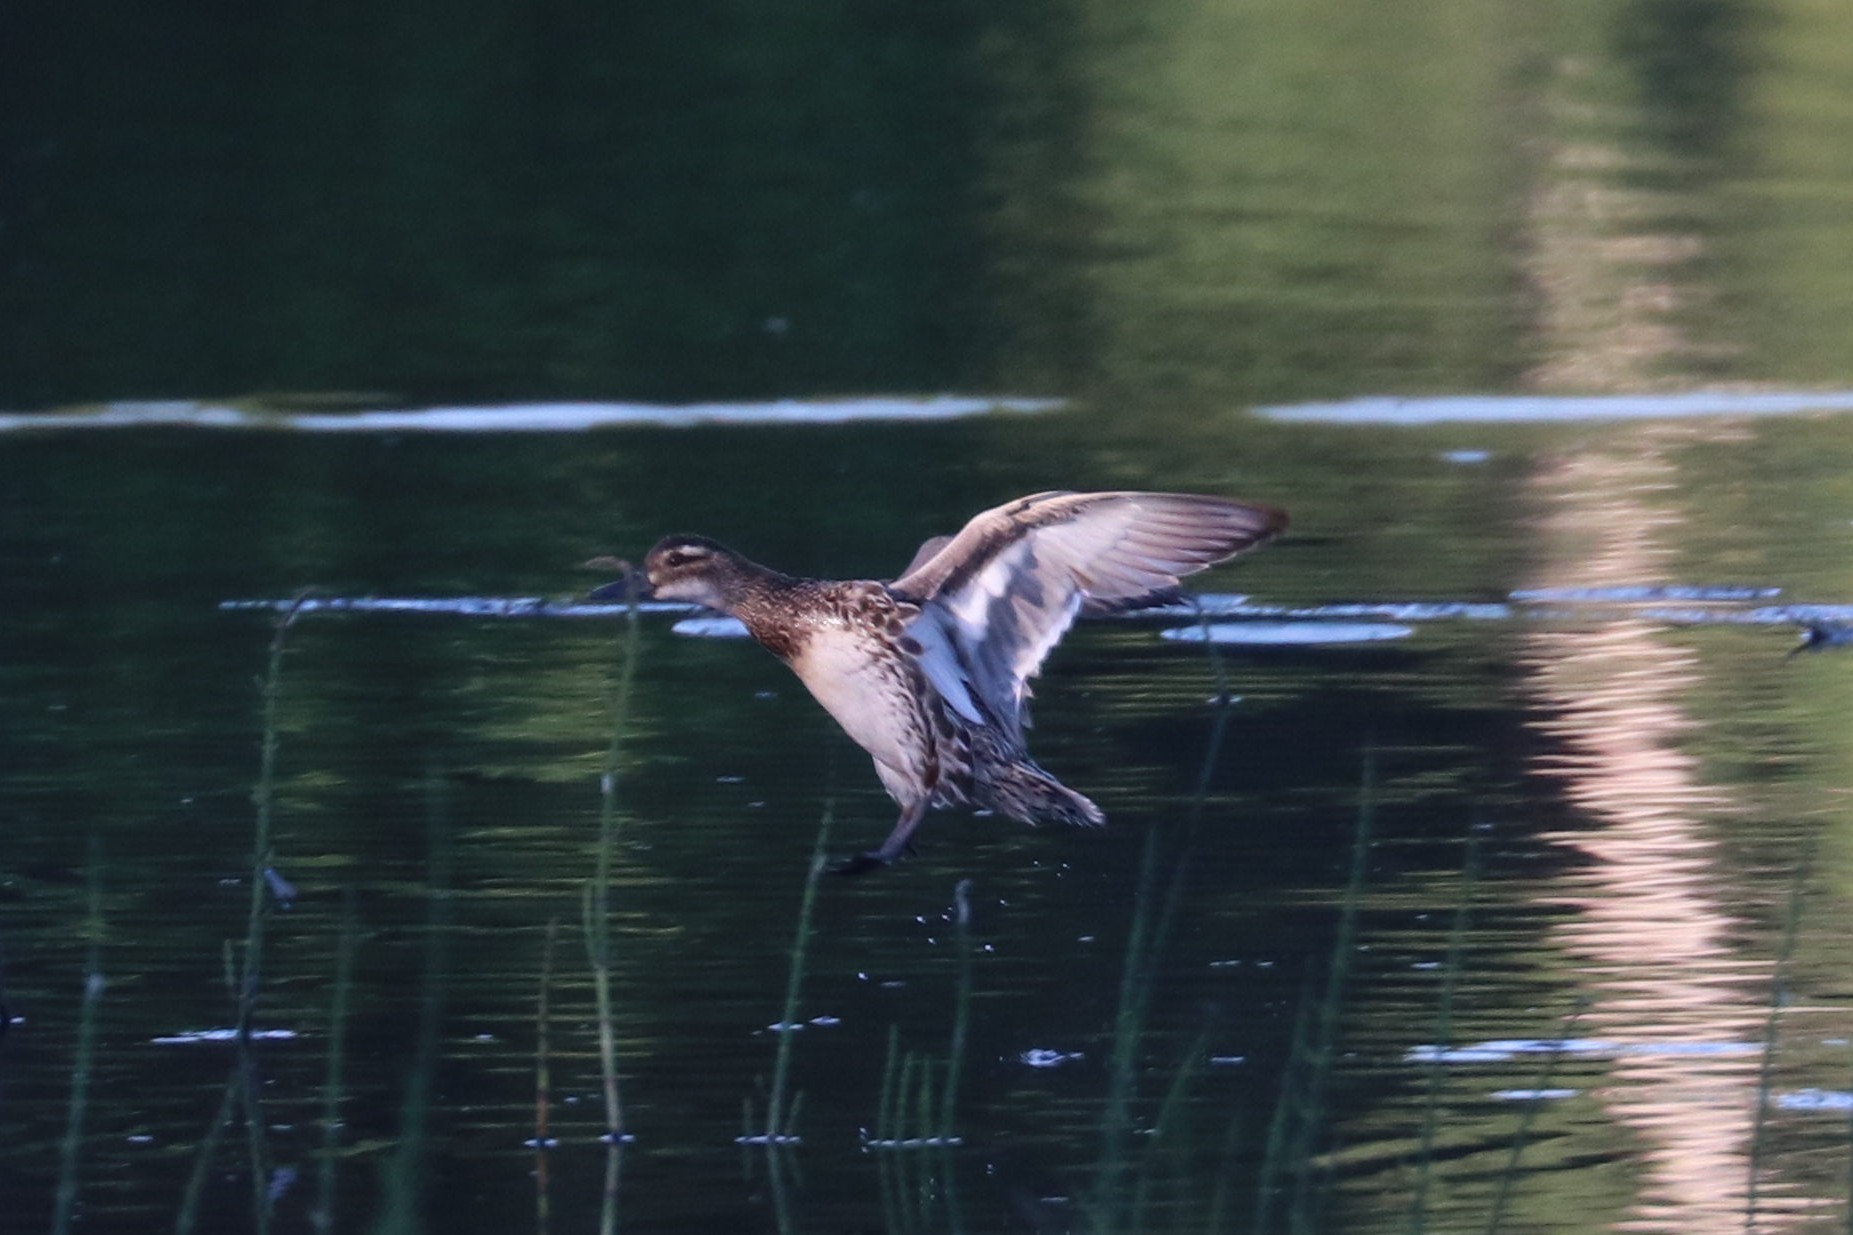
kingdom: Animalia
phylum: Chordata
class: Aves
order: Anseriformes
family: Anatidae
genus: Spatula
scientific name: Spatula querquedula
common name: Garganey
